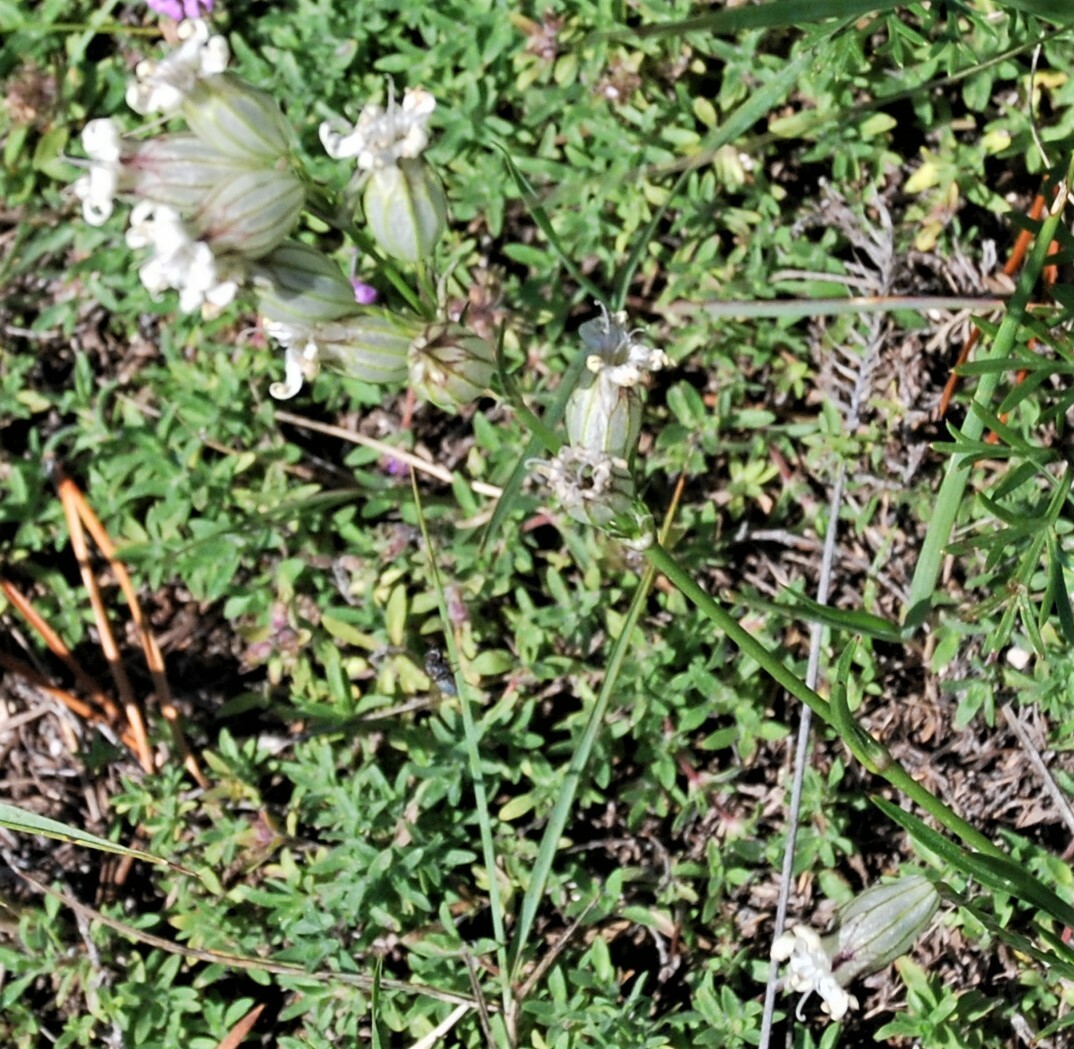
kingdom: Plantae
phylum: Tracheophyta
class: Magnoliopsida
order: Caryophyllales
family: Caryophyllaceae
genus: Silene
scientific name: Silene jeniseensis
